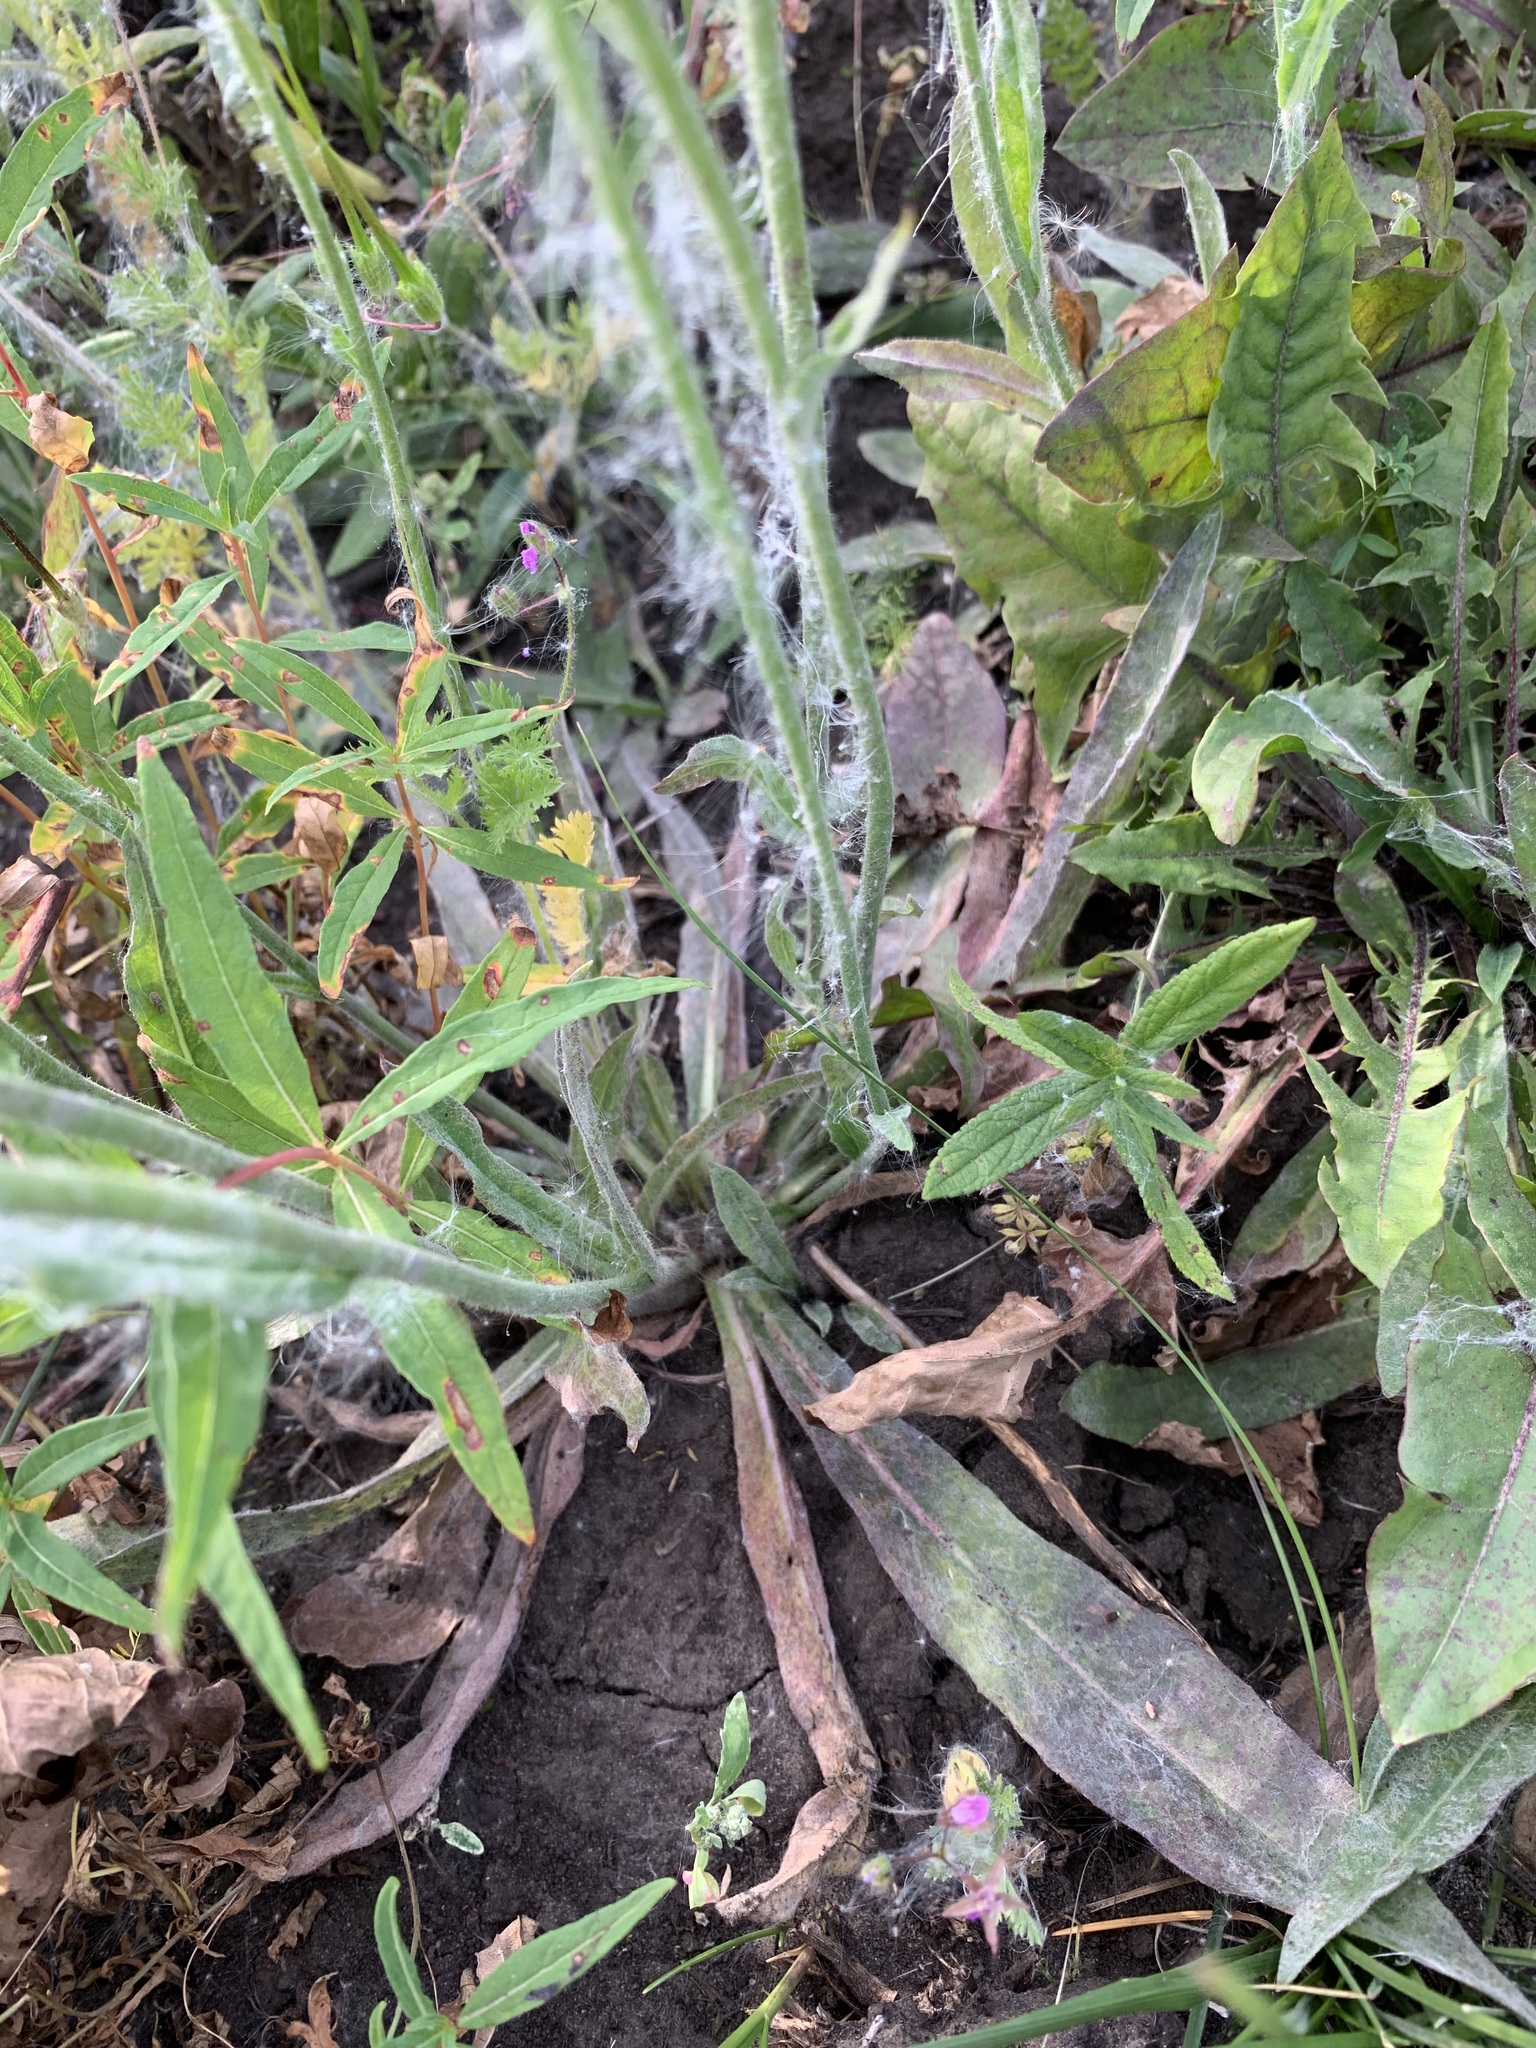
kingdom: Plantae
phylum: Tracheophyta
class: Magnoliopsida
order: Asterales
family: Asteraceae
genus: Pilosella
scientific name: Pilosella echioides
